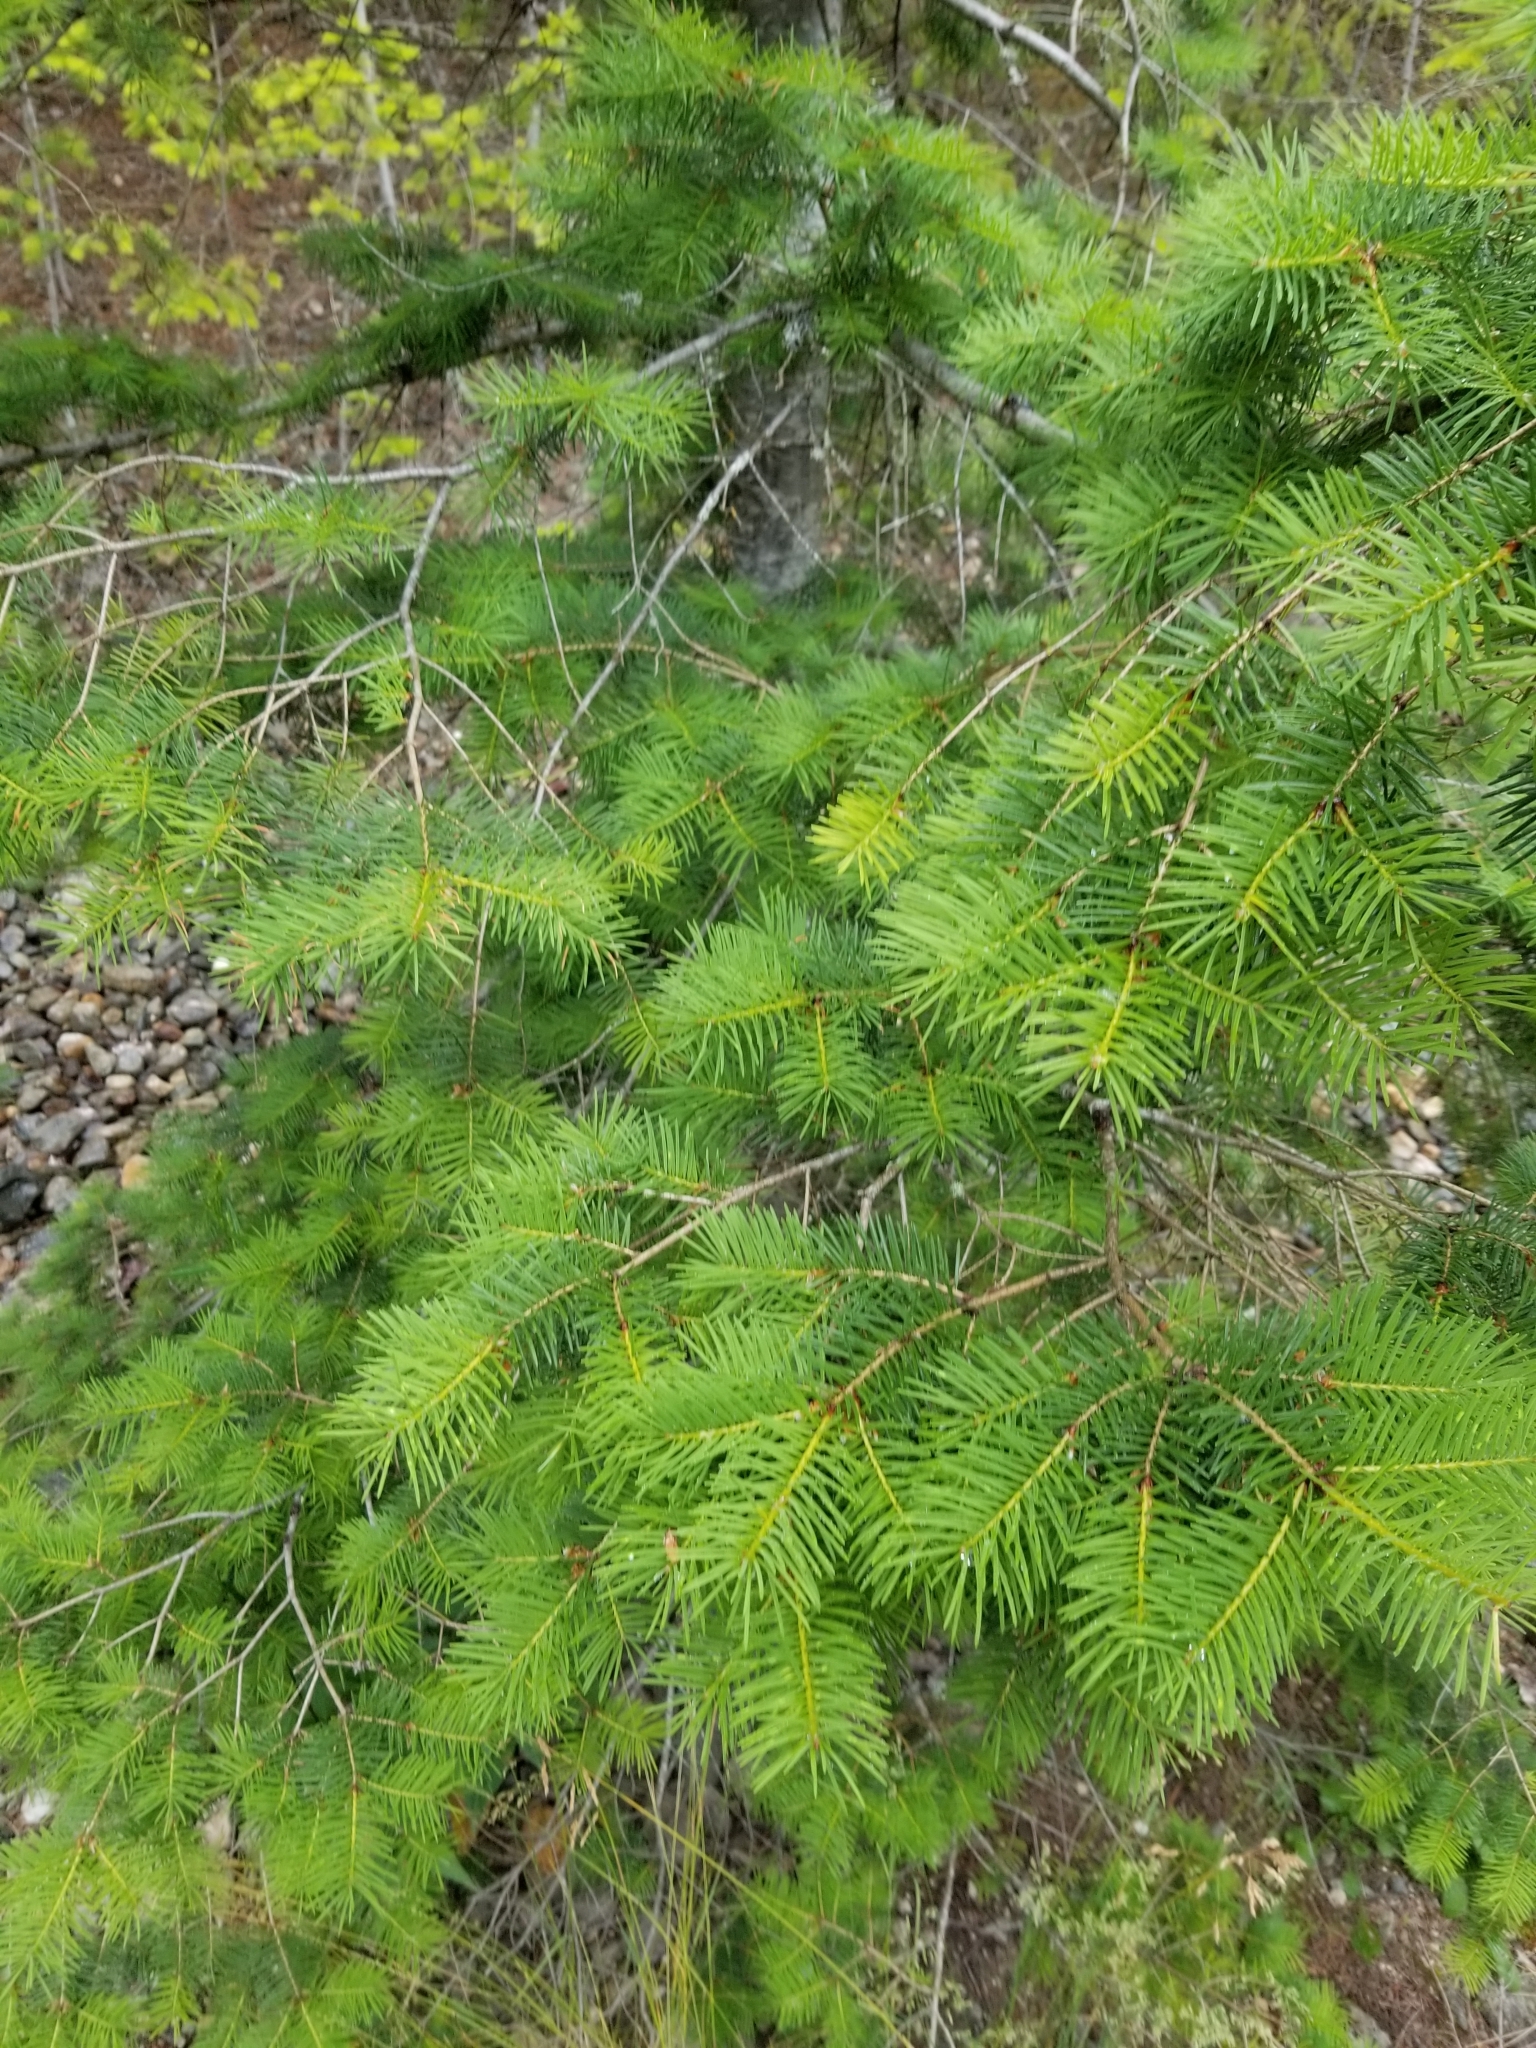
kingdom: Plantae
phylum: Tracheophyta
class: Pinopsida
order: Pinales
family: Pinaceae
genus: Pseudotsuga
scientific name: Pseudotsuga menziesii
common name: Douglas fir
